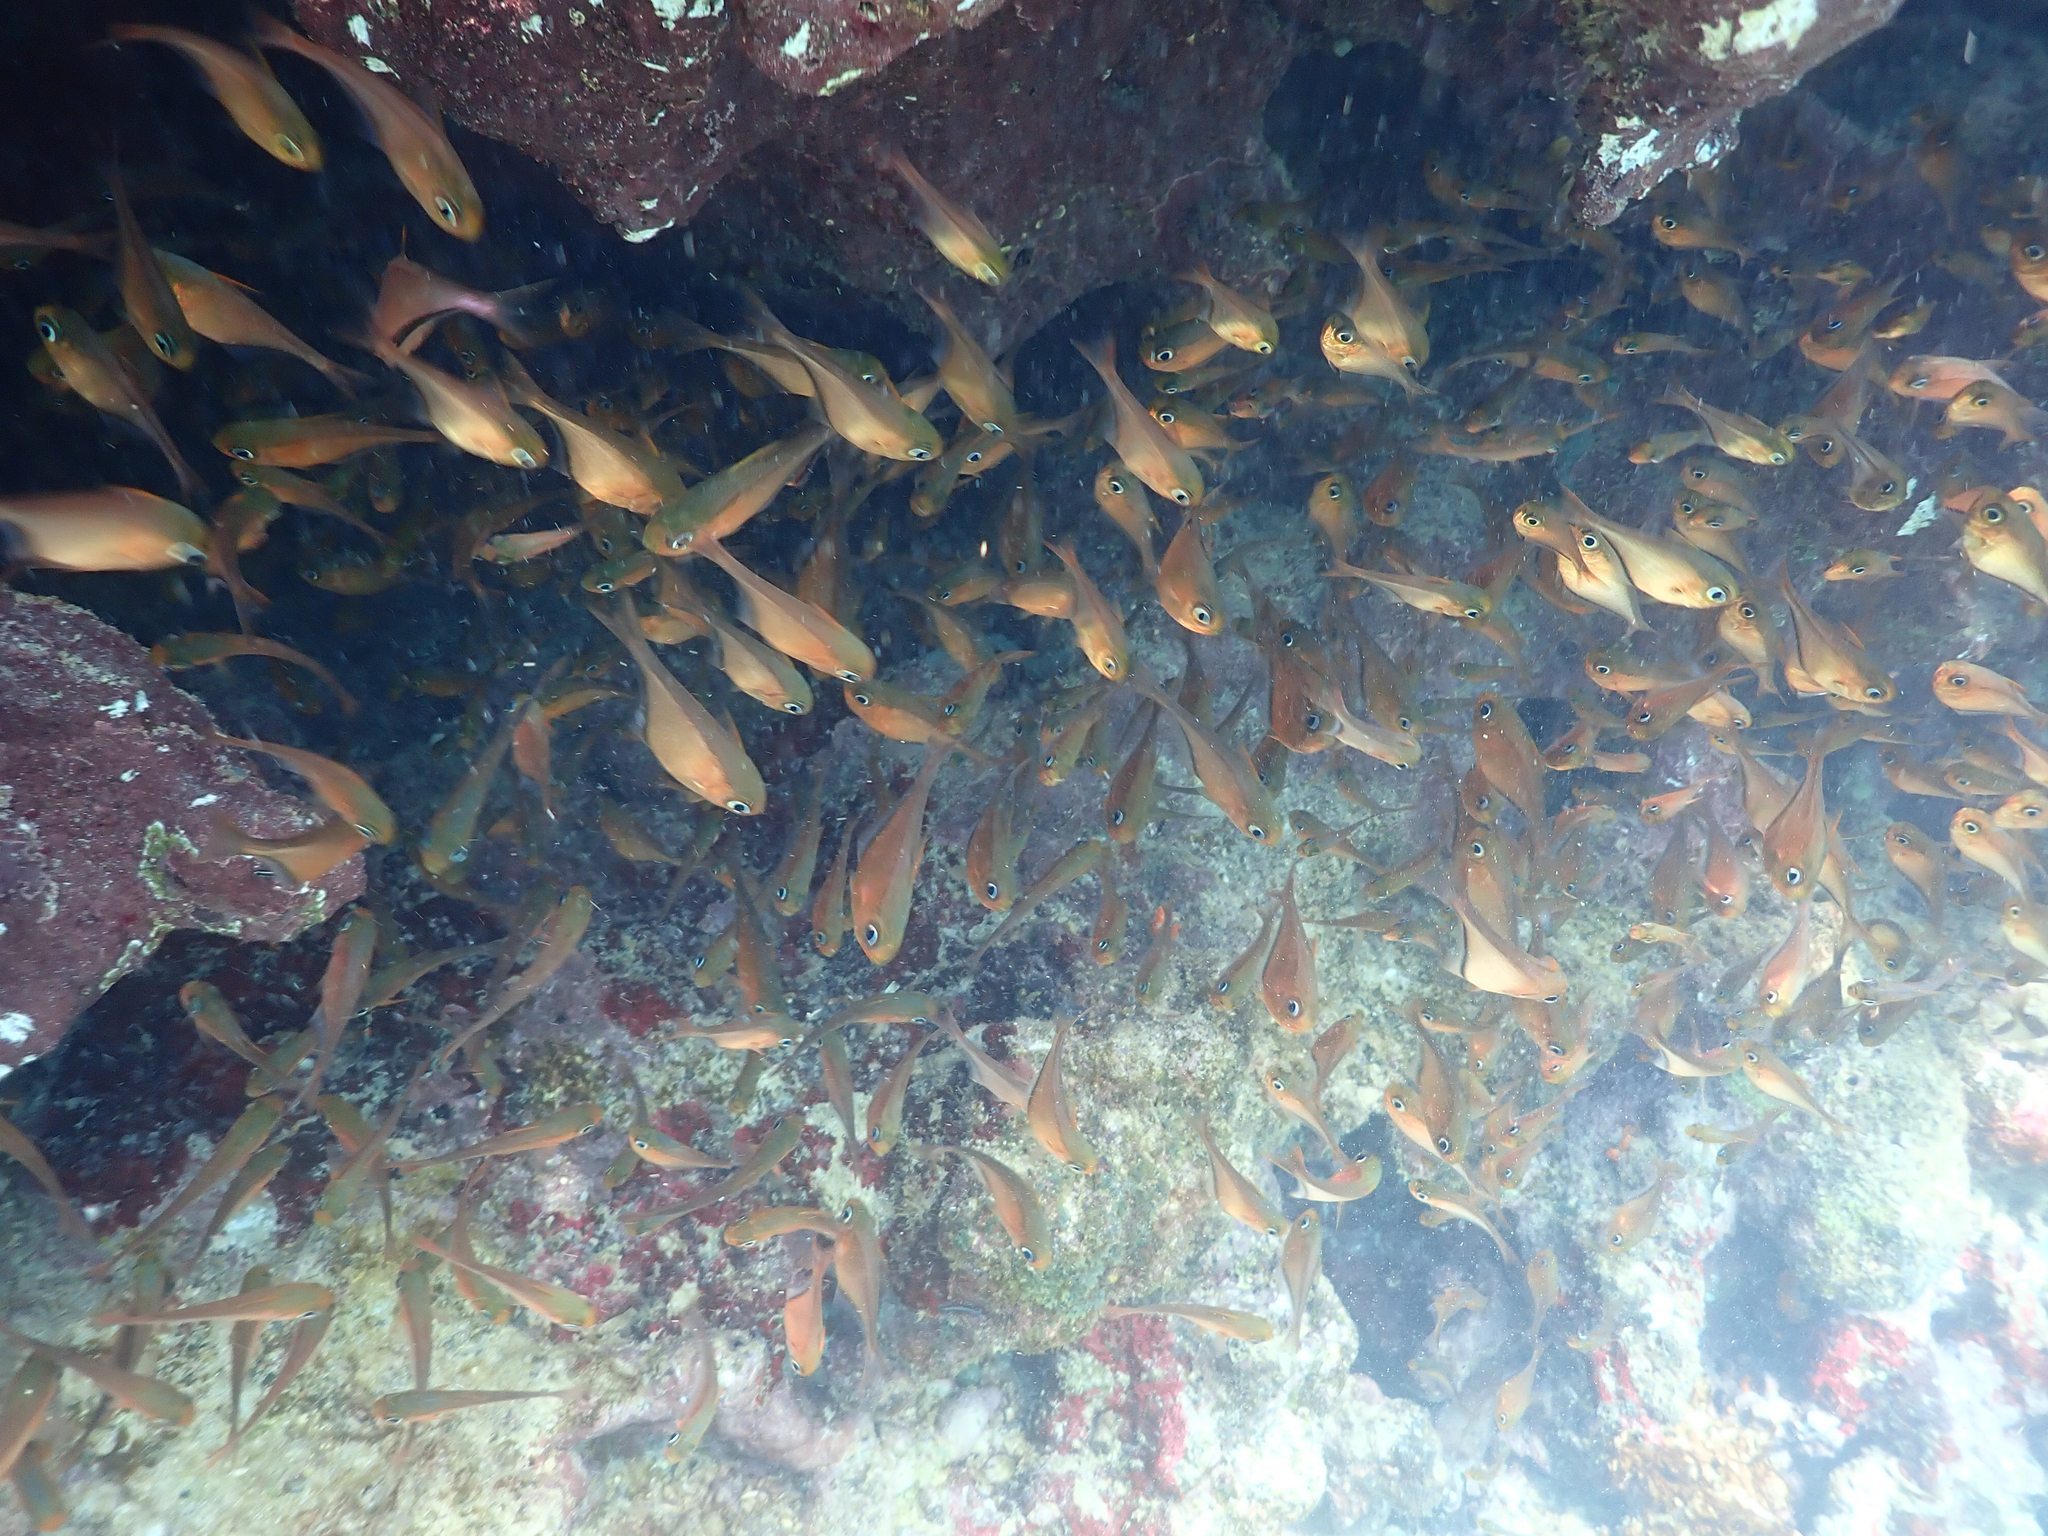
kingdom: Animalia
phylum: Chordata
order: Perciformes
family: Pempheridae
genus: Pempheris
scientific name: Pempheris schomburgkii
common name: Glassy sweeper
